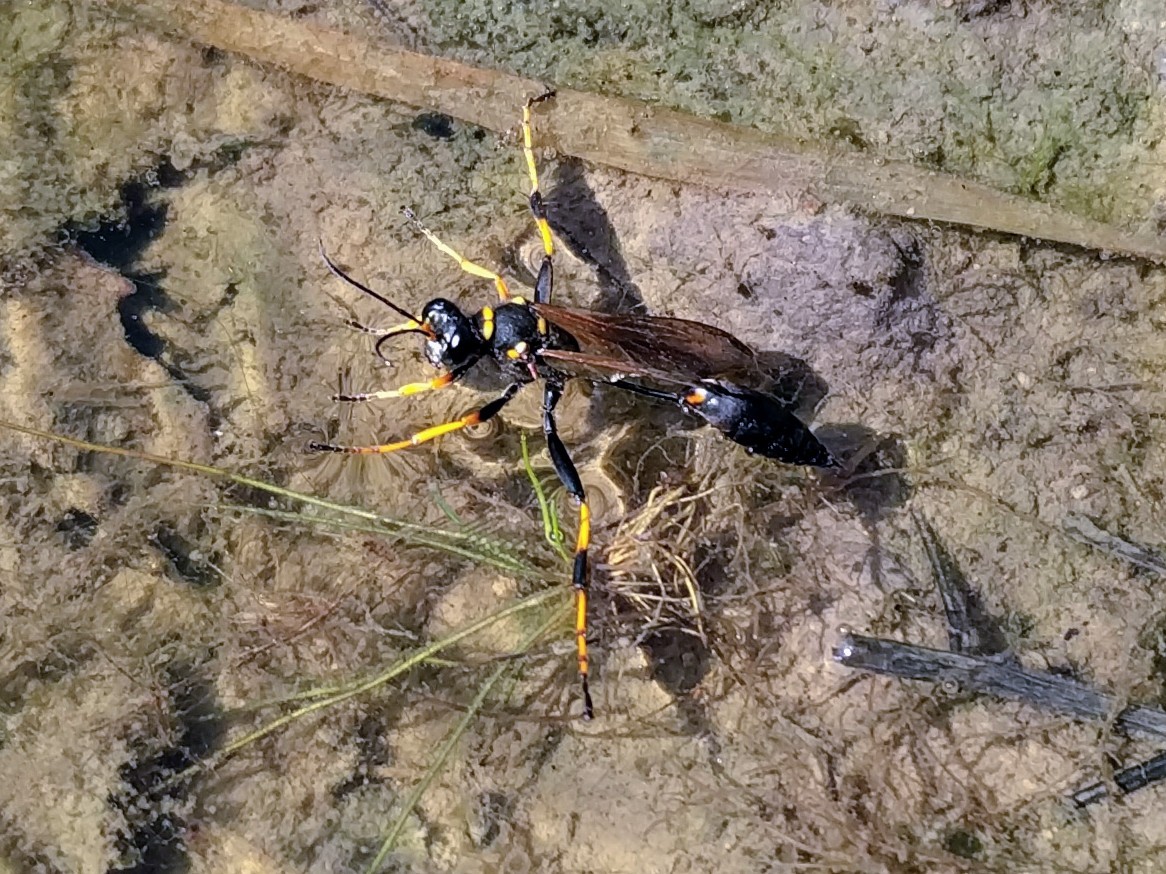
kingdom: Animalia
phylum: Arthropoda
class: Insecta
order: Hymenoptera
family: Sphecidae
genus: Sceliphron
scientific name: Sceliphron caementarium
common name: Mud dauber
